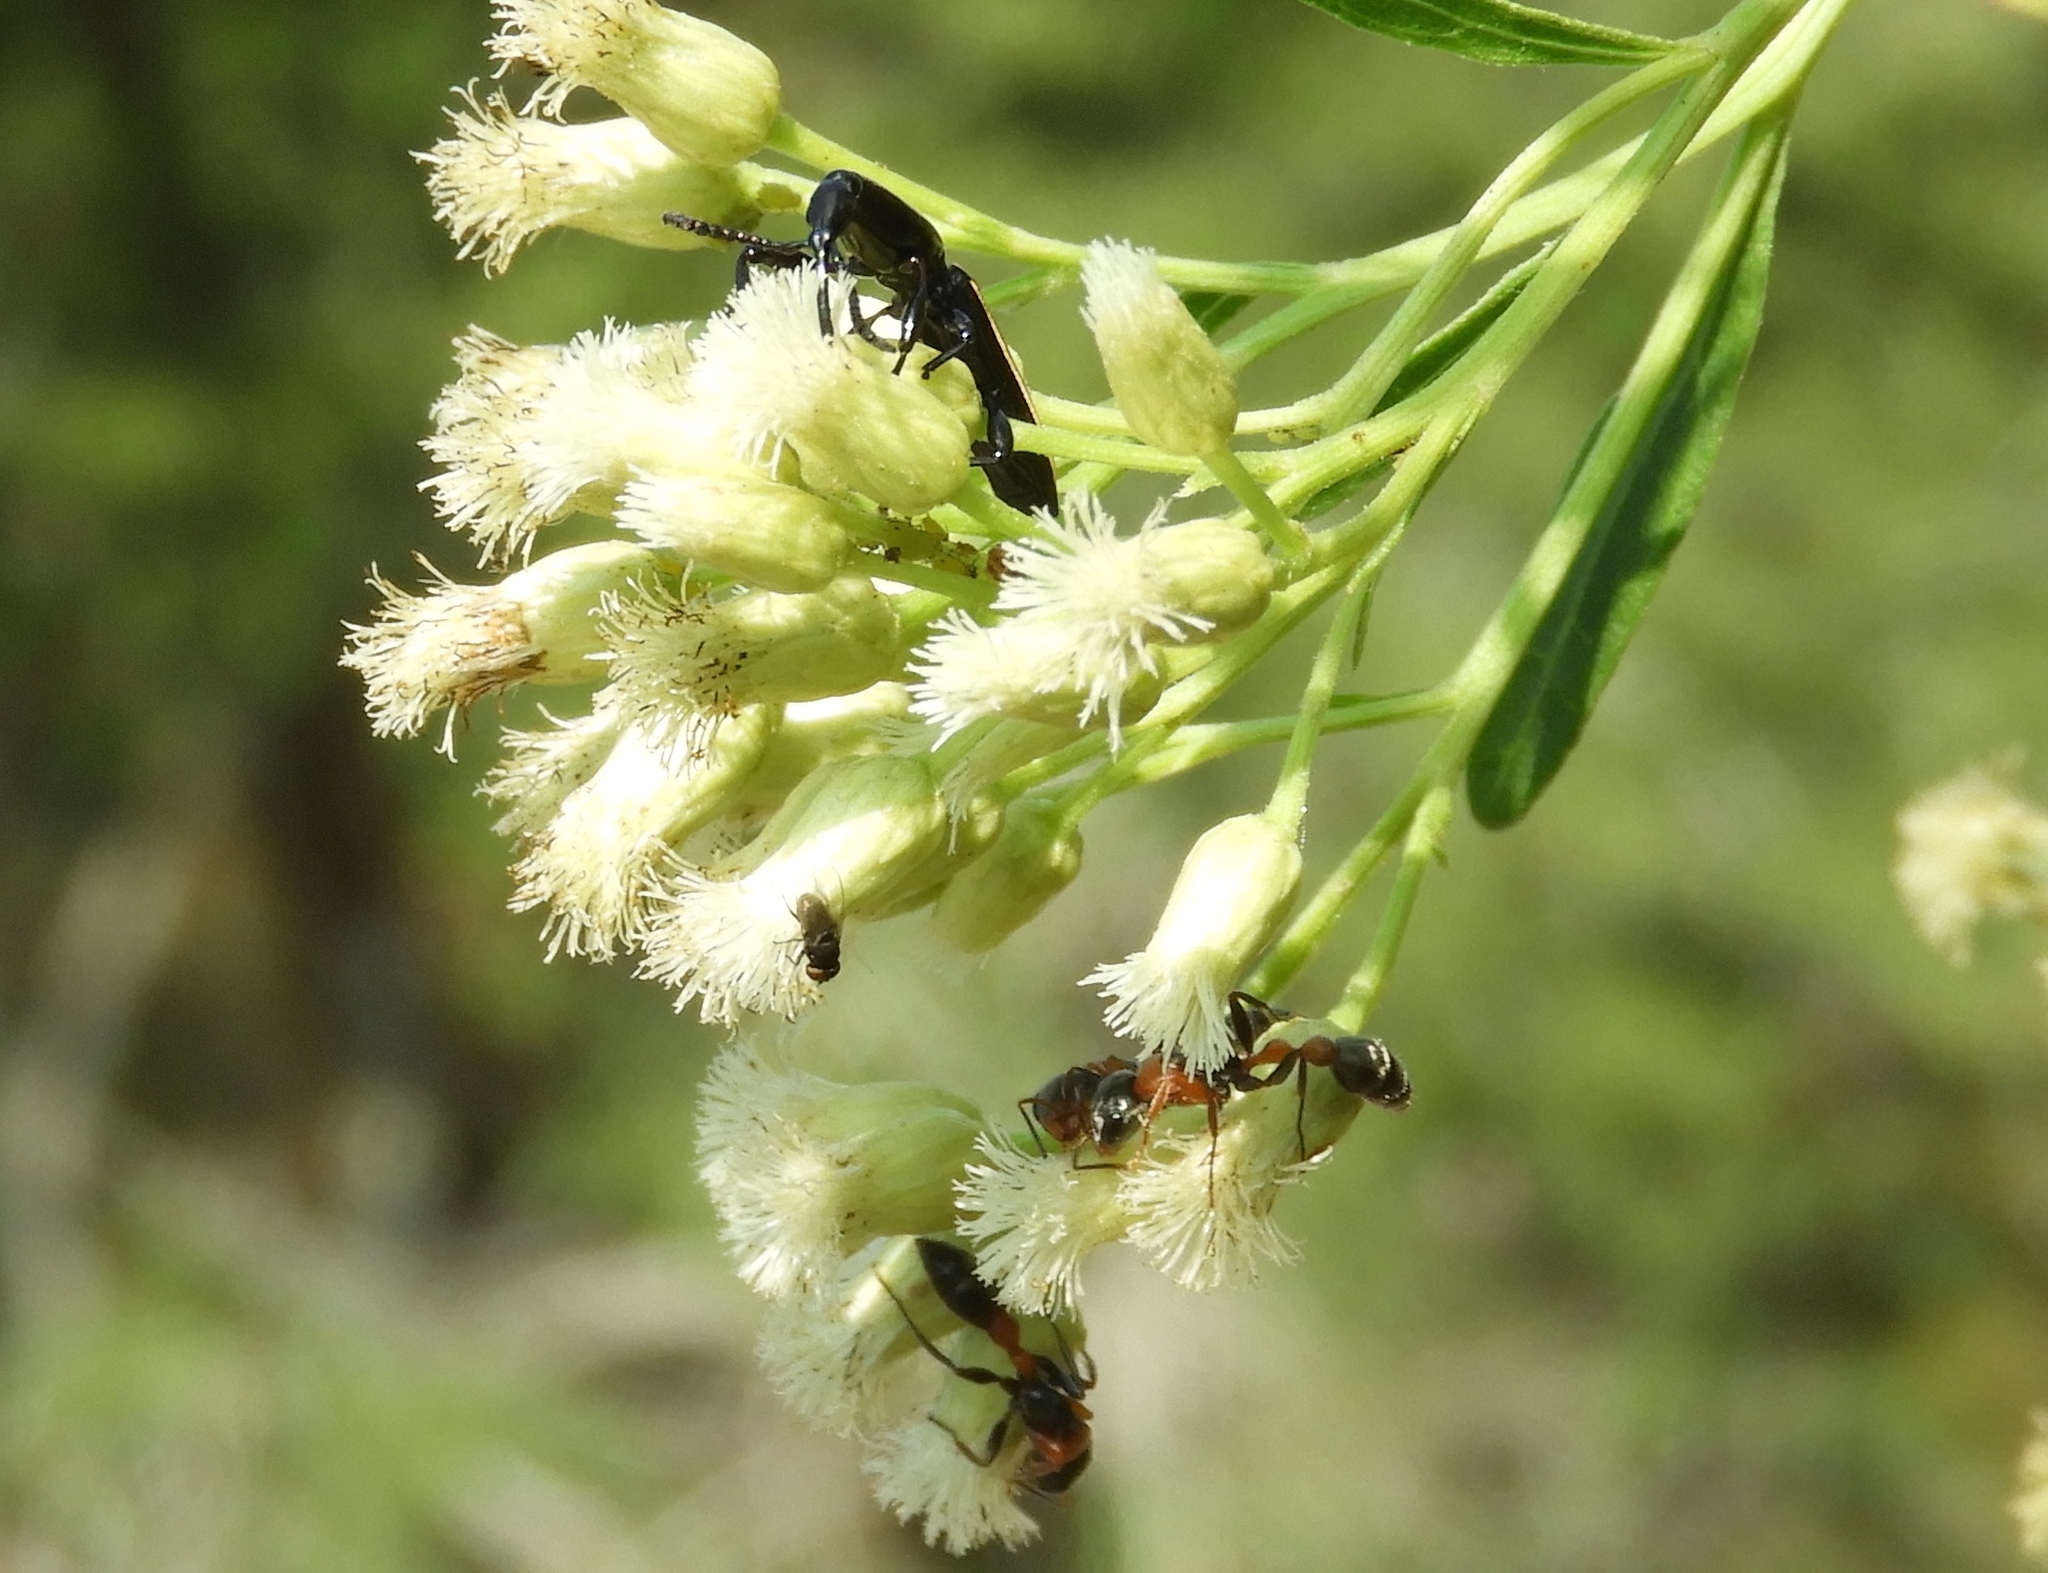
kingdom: Plantae
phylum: Tracheophyta
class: Magnoliopsida
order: Asterales
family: Asteraceae
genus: Baccharis
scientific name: Baccharis salicifolia
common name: Sticky baccharis
